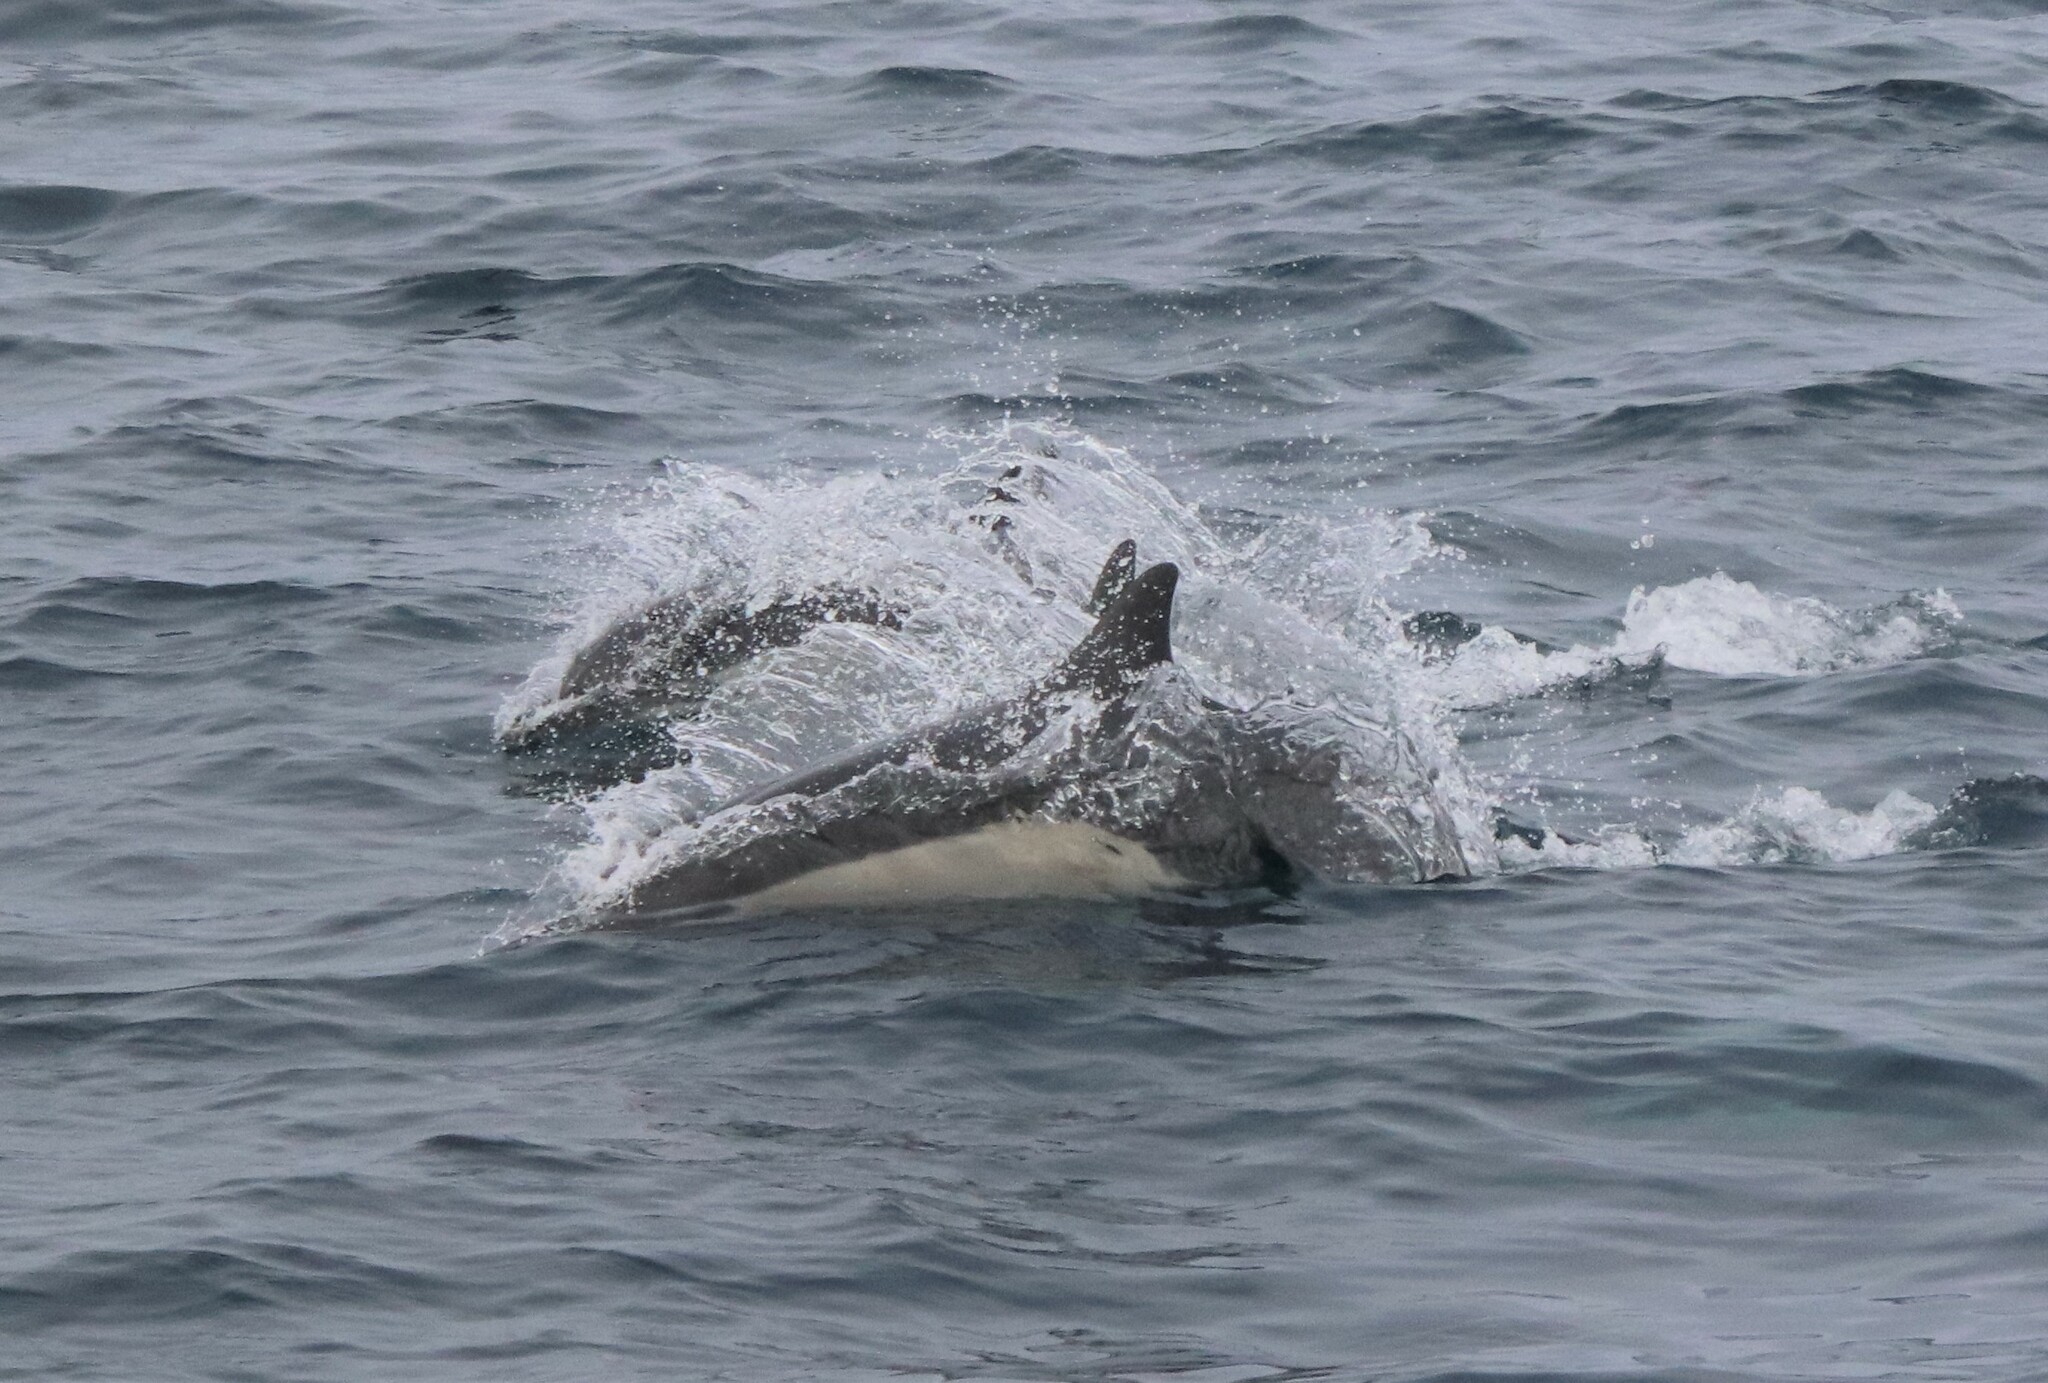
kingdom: Animalia
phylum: Chordata
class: Mammalia
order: Cetacea
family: Delphinidae
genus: Delphinus
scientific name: Delphinus delphis
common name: Common dolphin
